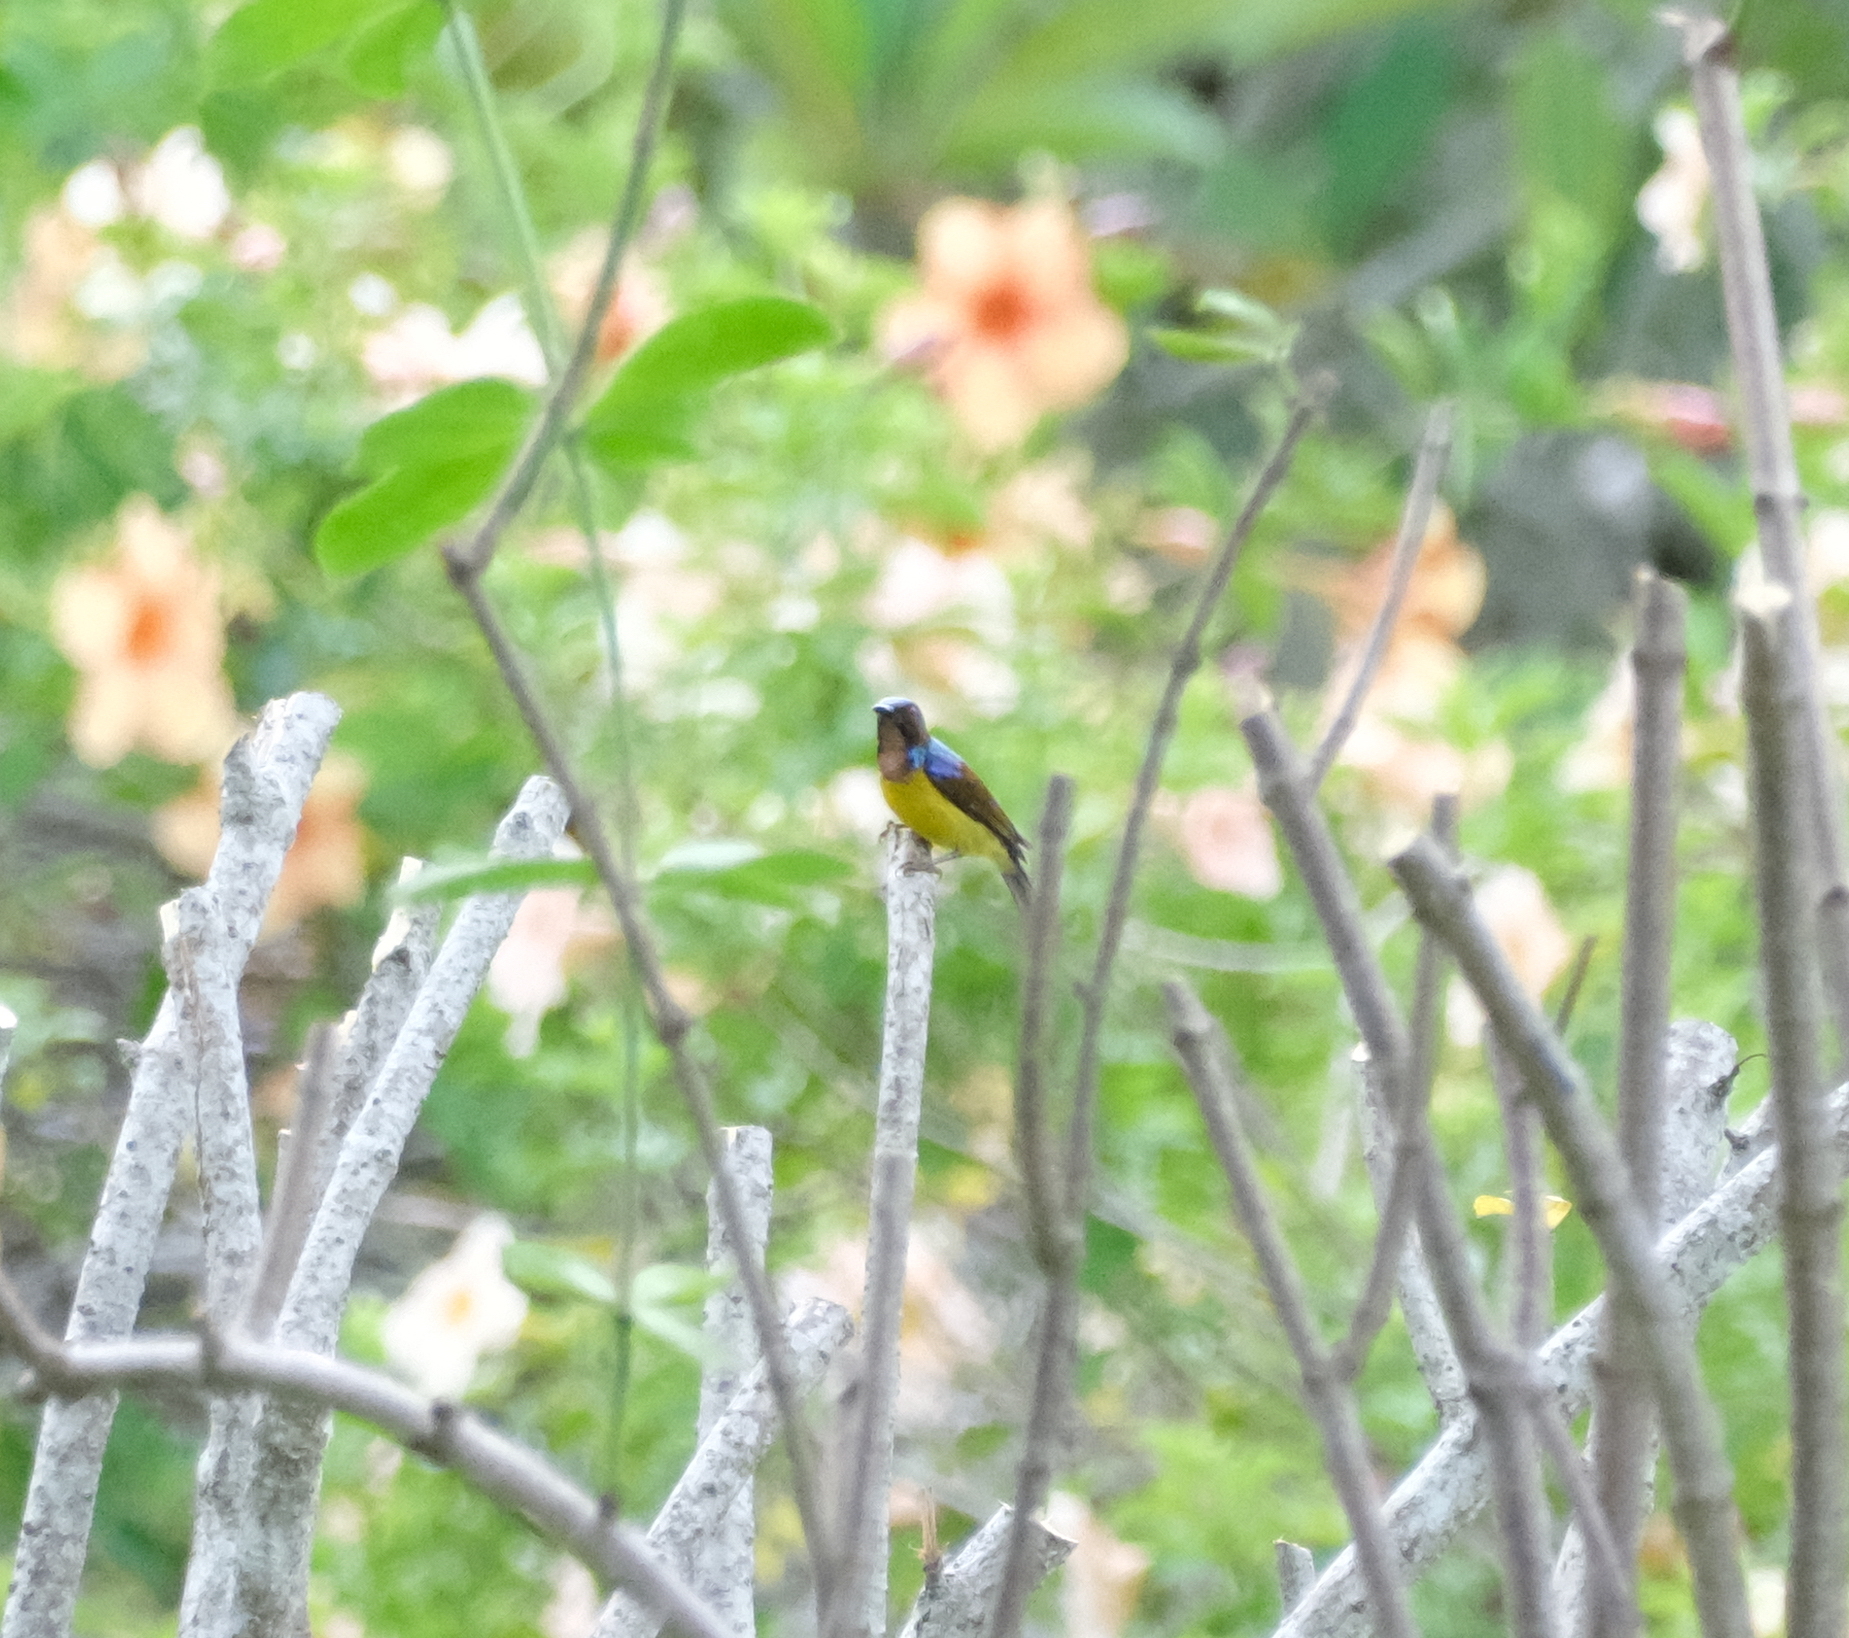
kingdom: Animalia
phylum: Chordata
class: Aves
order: Passeriformes
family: Nectariniidae
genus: Anthreptes
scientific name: Anthreptes malacensis
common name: Brown-throated sunbird
